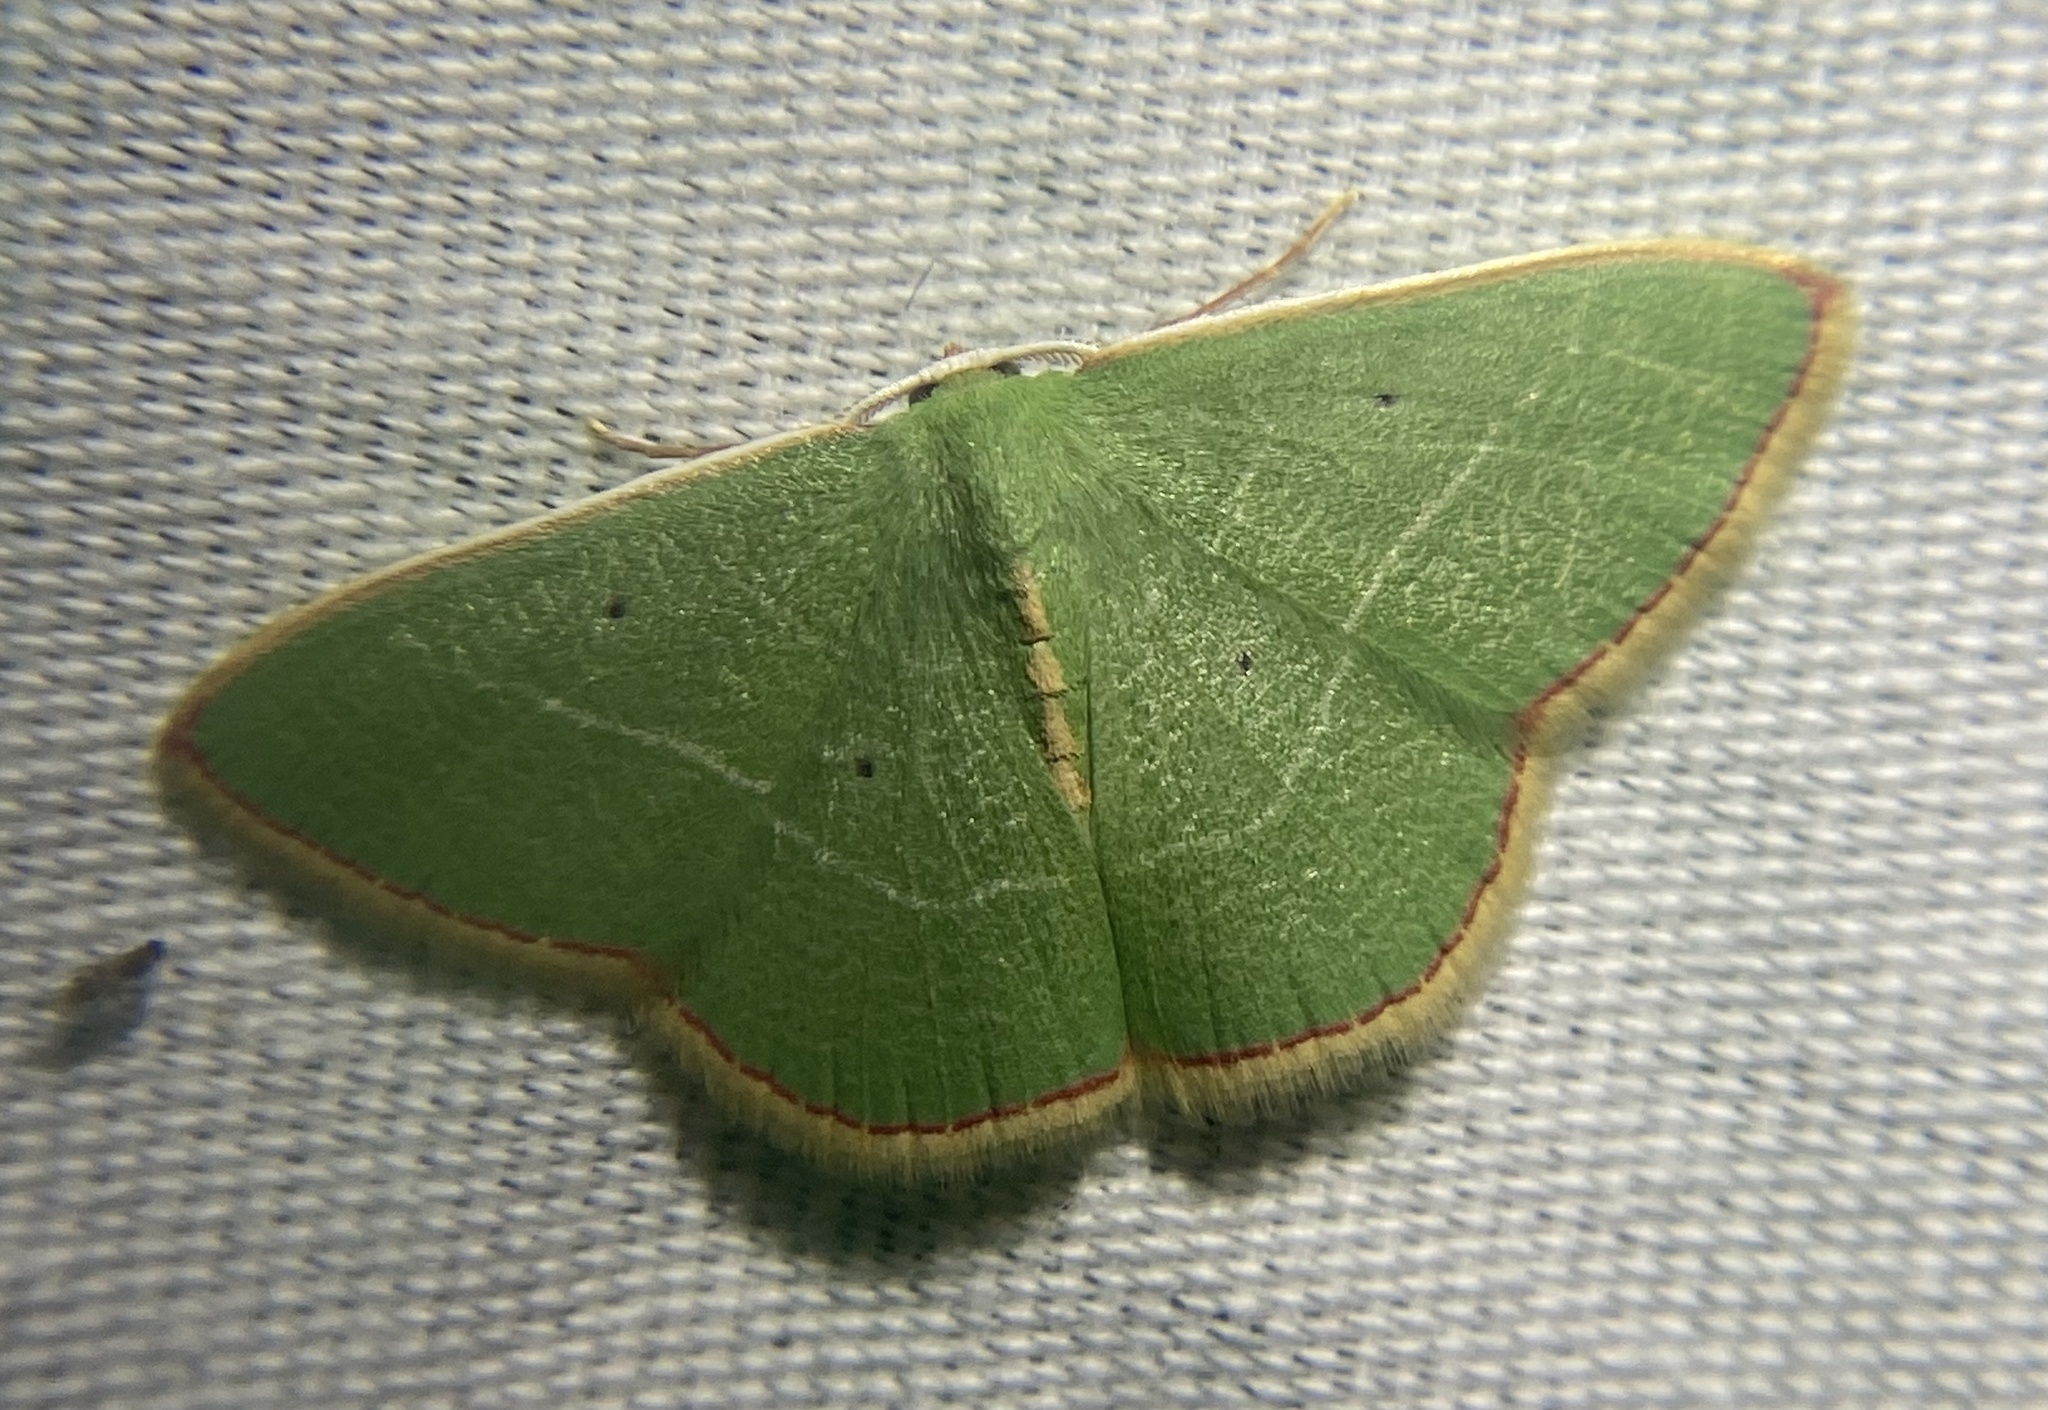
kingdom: Animalia
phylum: Arthropoda
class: Insecta
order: Lepidoptera
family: Geometridae
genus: Nemoria
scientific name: Nemoria bifilata
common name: White-barred emerald moth
